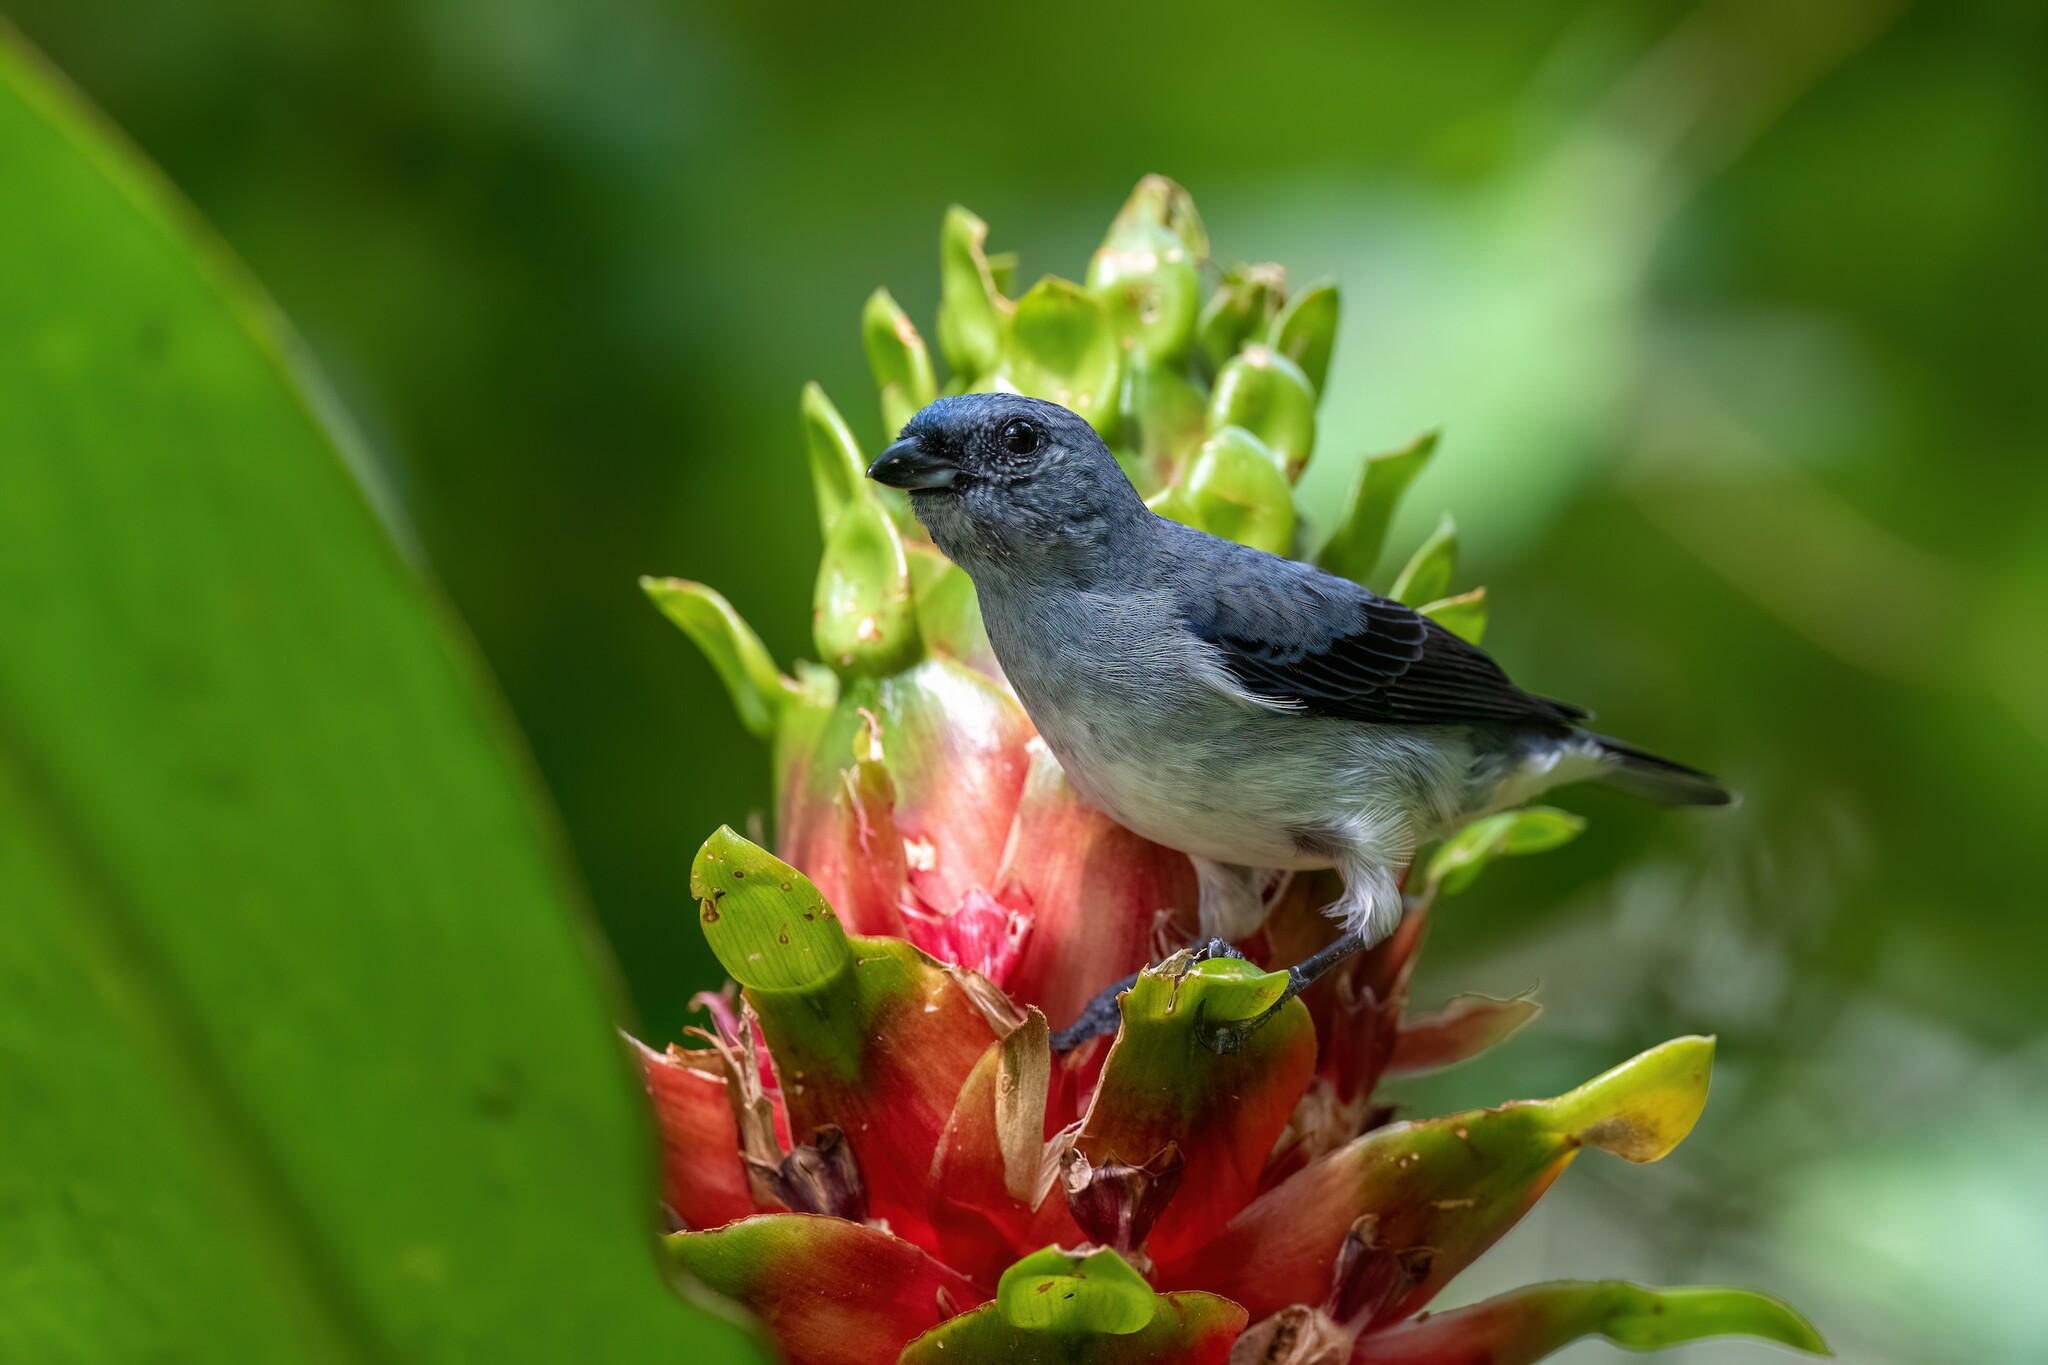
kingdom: Animalia
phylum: Chordata
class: Aves
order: Passeriformes
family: Thraupidae
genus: Tangara
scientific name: Tangara inornata
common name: Plain-colored tanager
